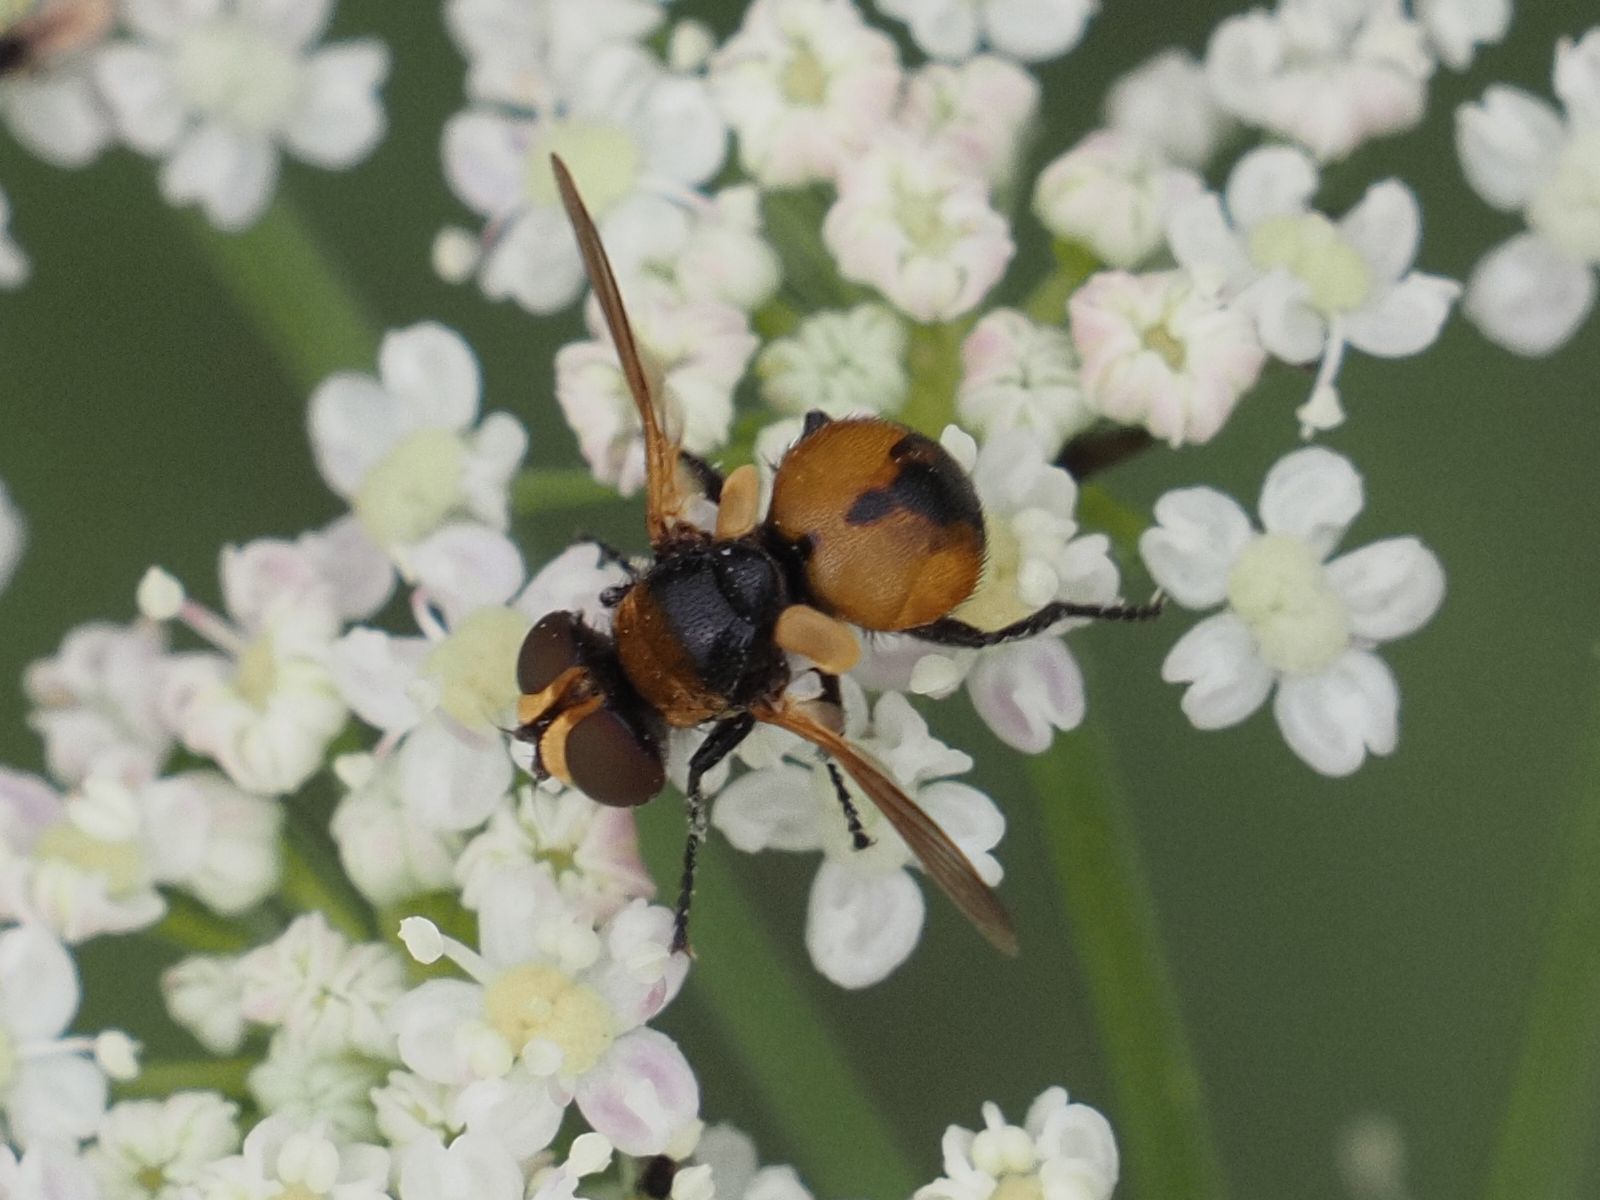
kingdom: Animalia
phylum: Arthropoda
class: Insecta
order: Diptera
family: Tachinidae
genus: Cistogaster
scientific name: Cistogaster globosa
